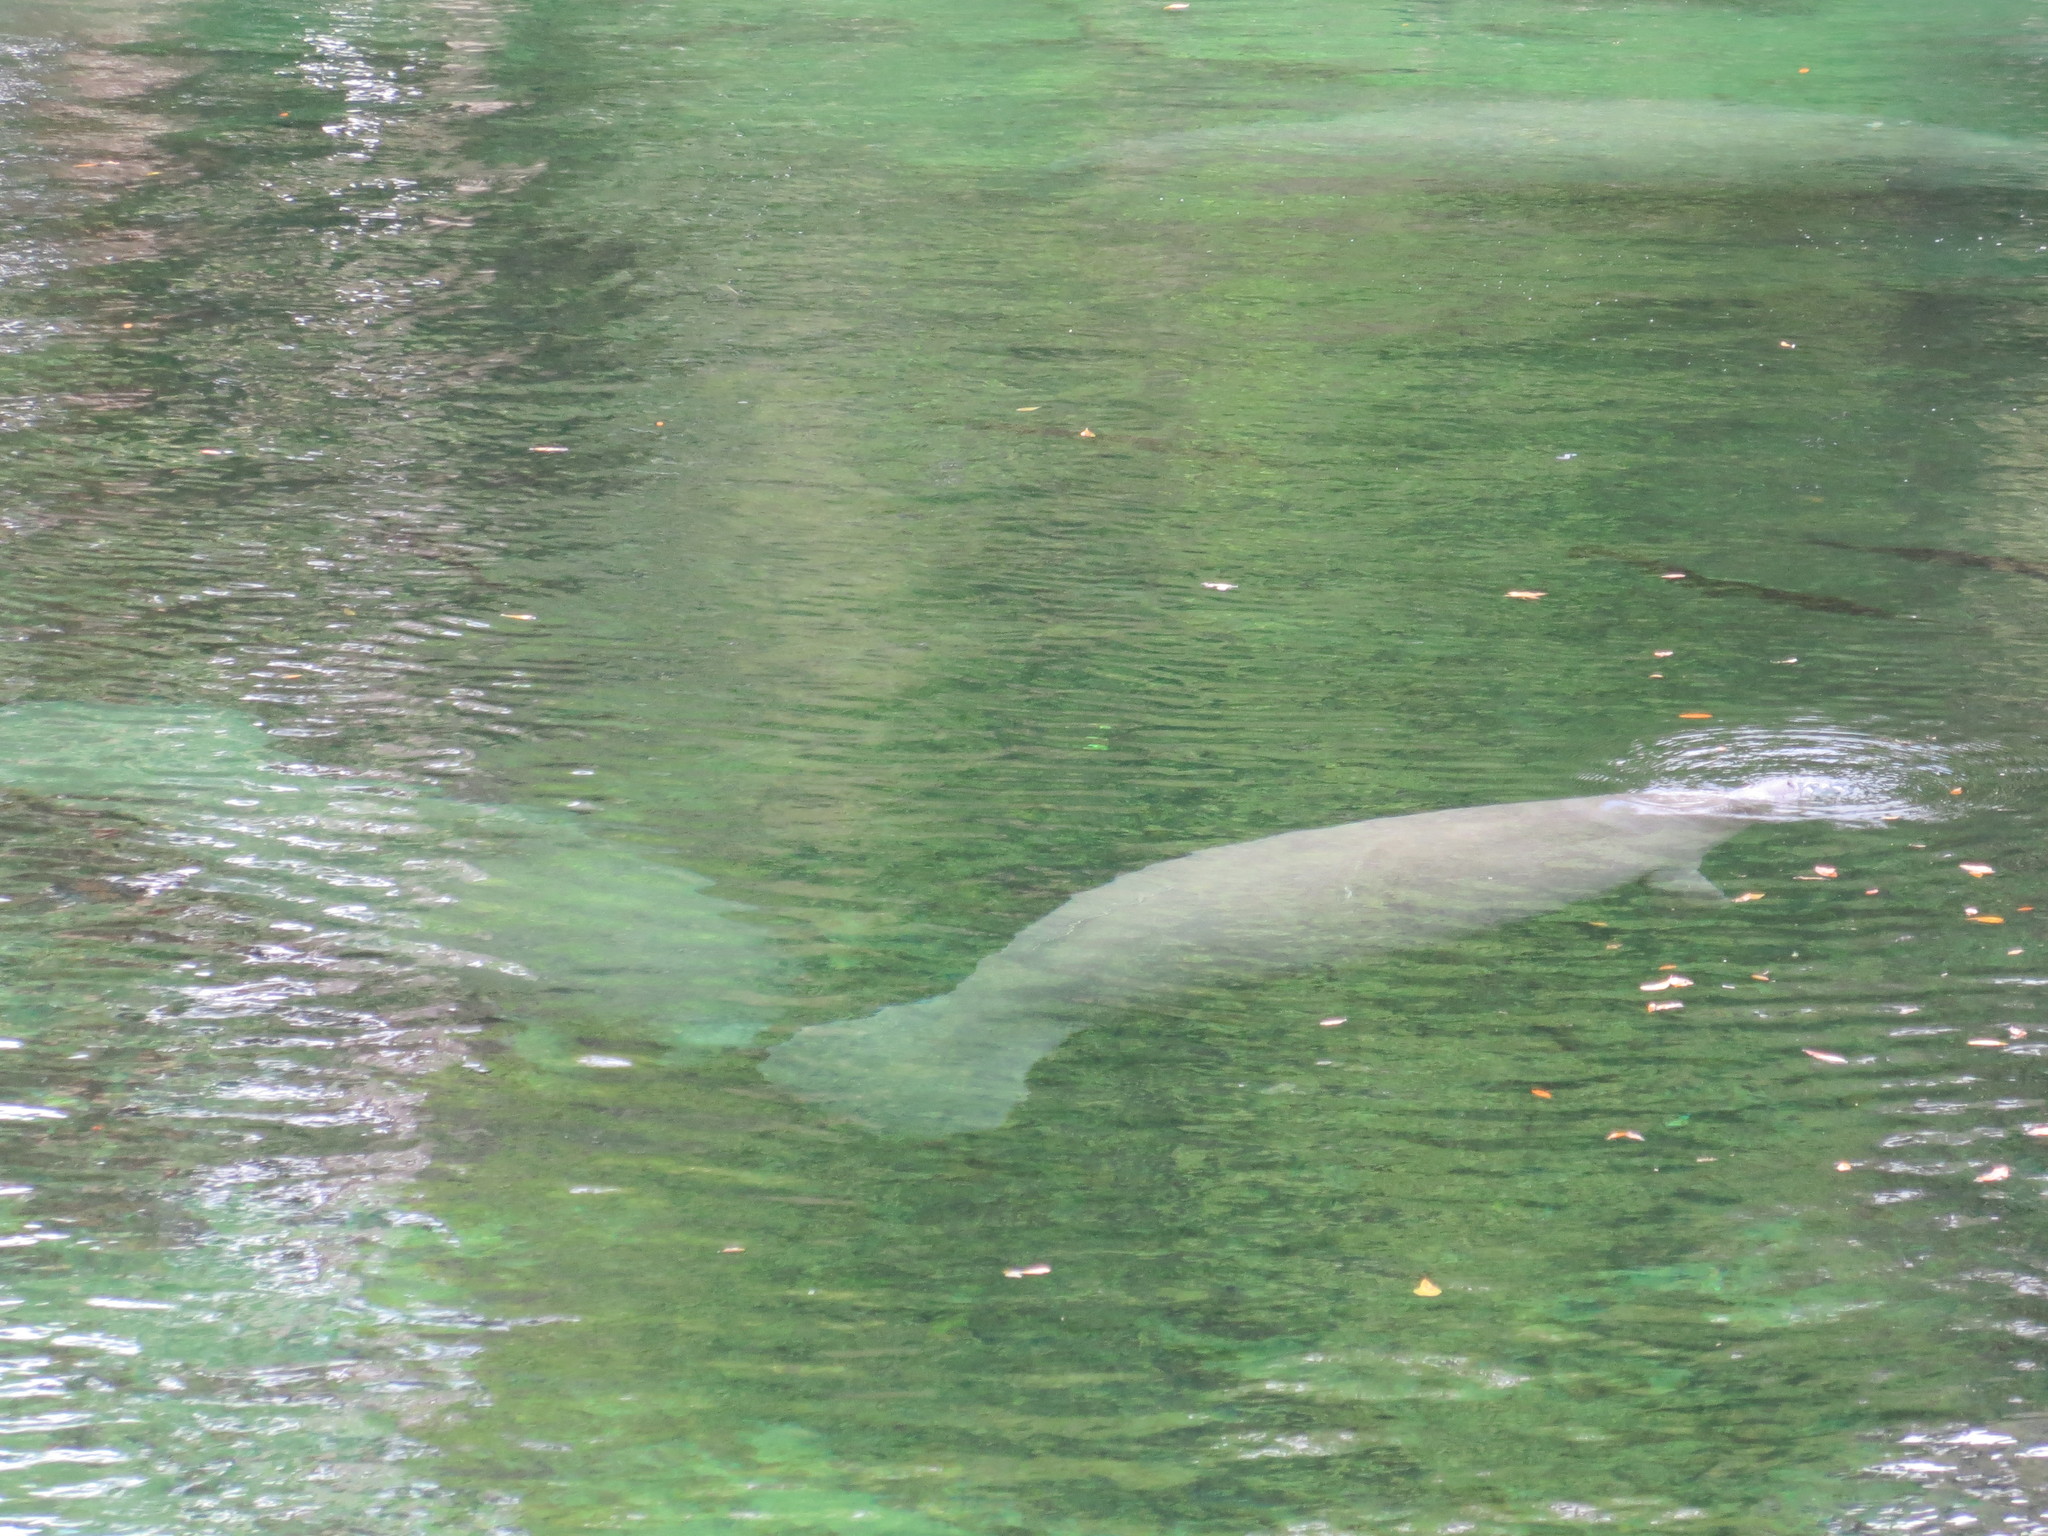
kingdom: Animalia
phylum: Chordata
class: Mammalia
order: Sirenia
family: Trichechidae
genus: Trichechus
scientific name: Trichechus manatus
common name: West indian manatee
